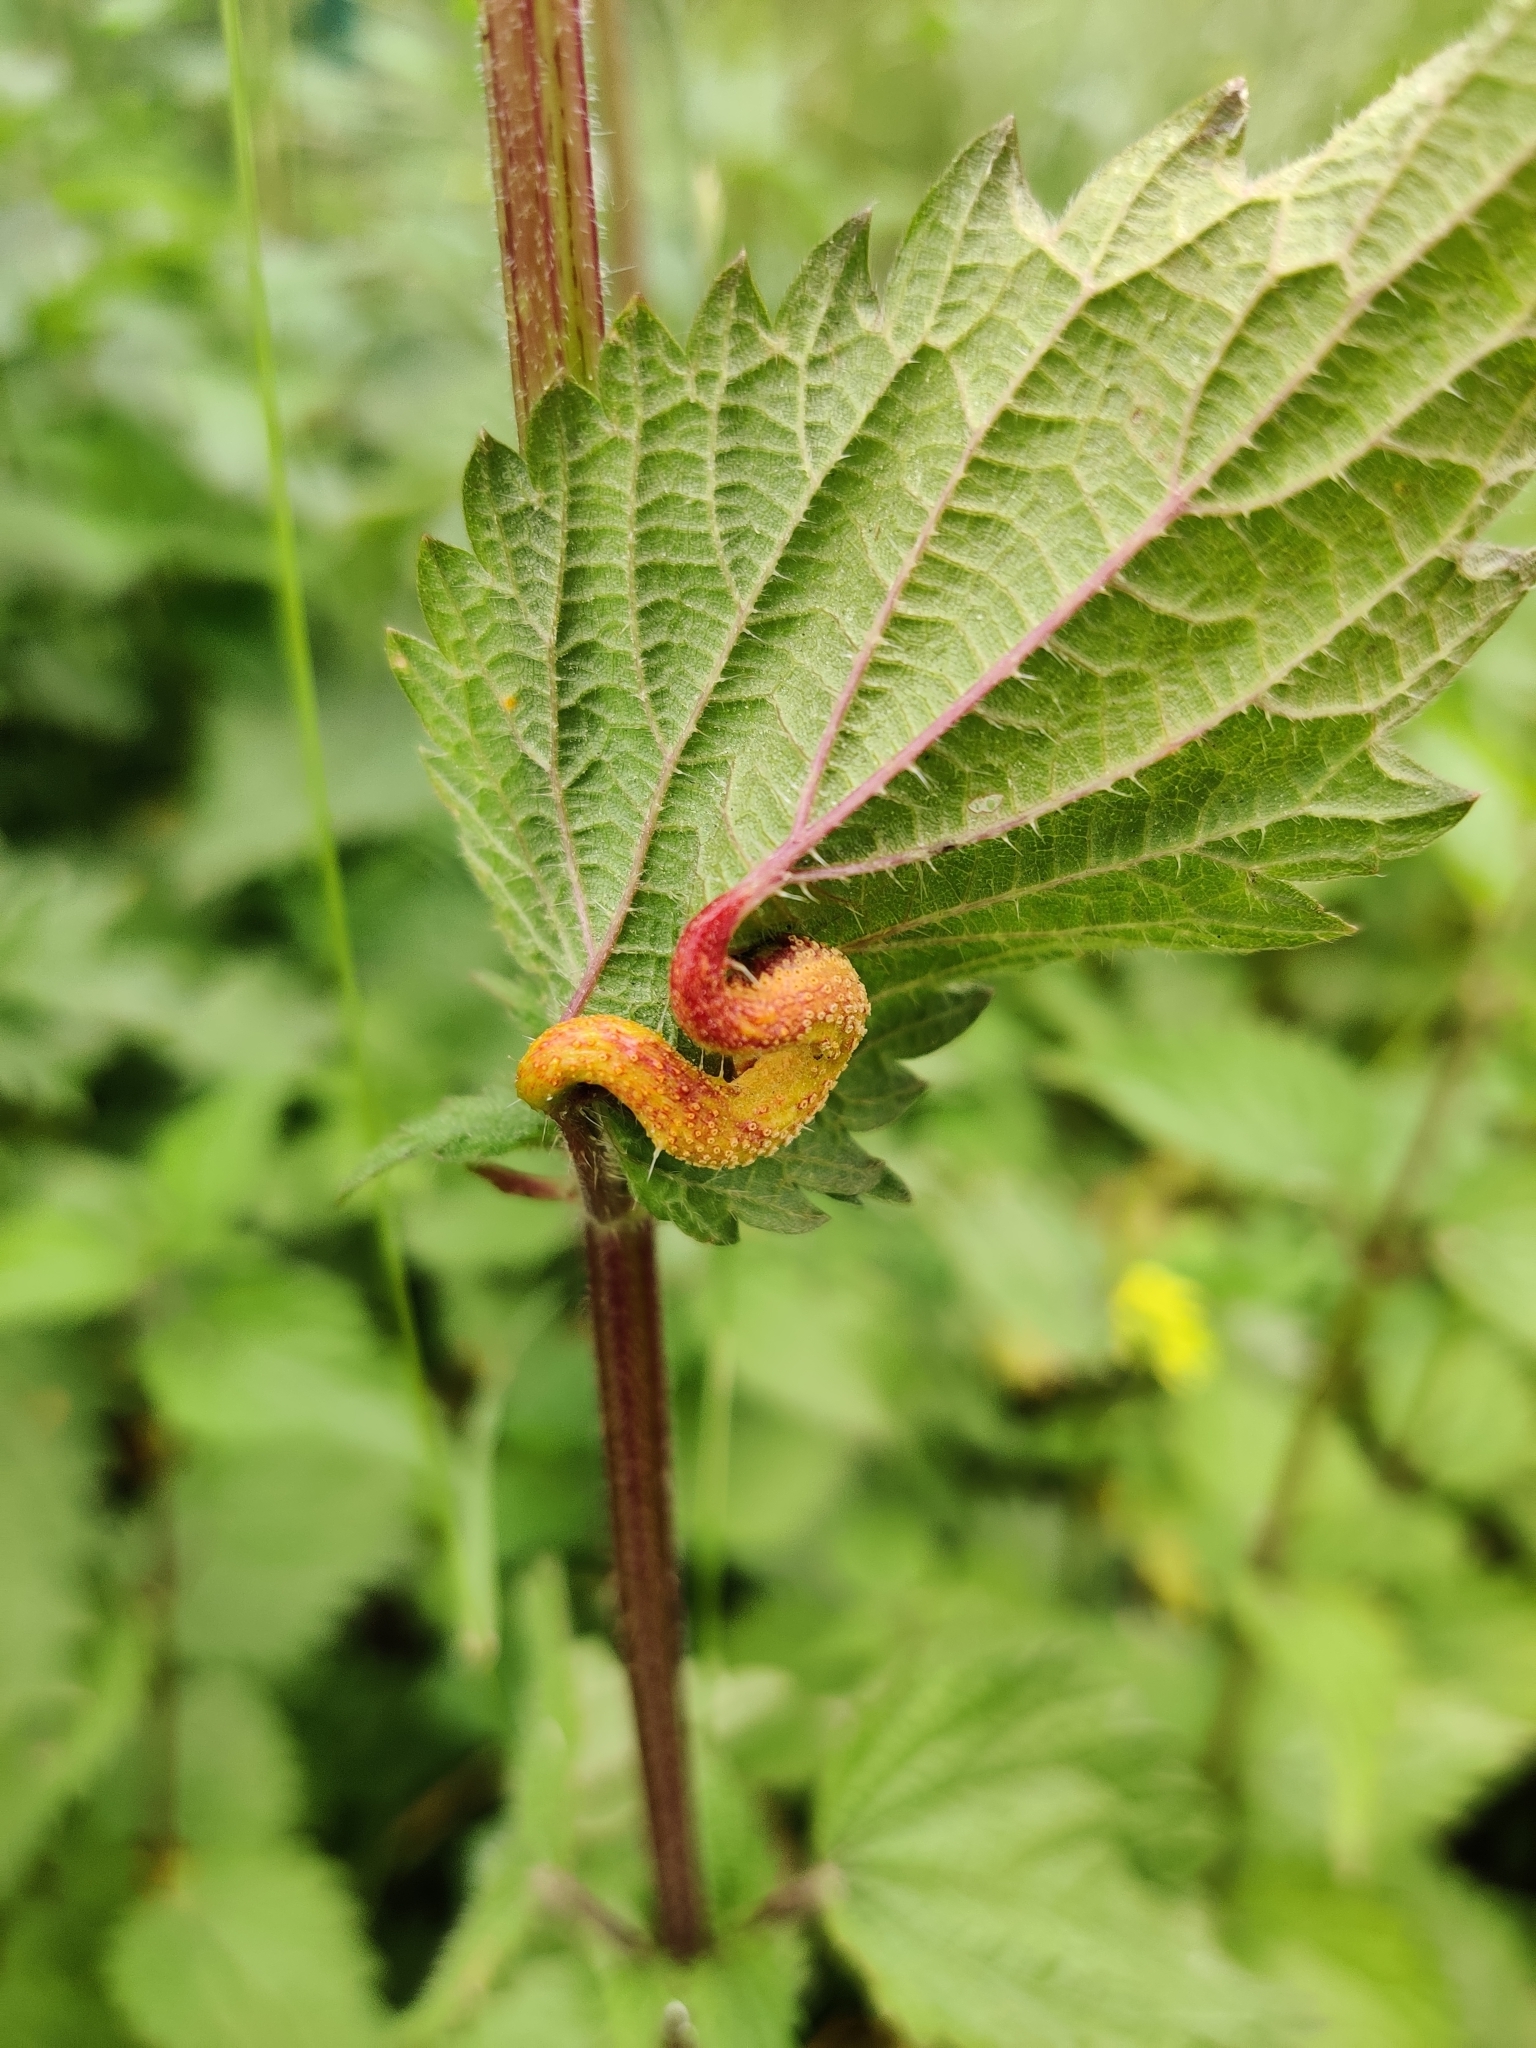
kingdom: Fungi
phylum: Basidiomycota
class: Pucciniomycetes
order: Pucciniales
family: Pucciniaceae
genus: Puccinia
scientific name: Puccinia urticata
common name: Nettle clustercup rust fungus
